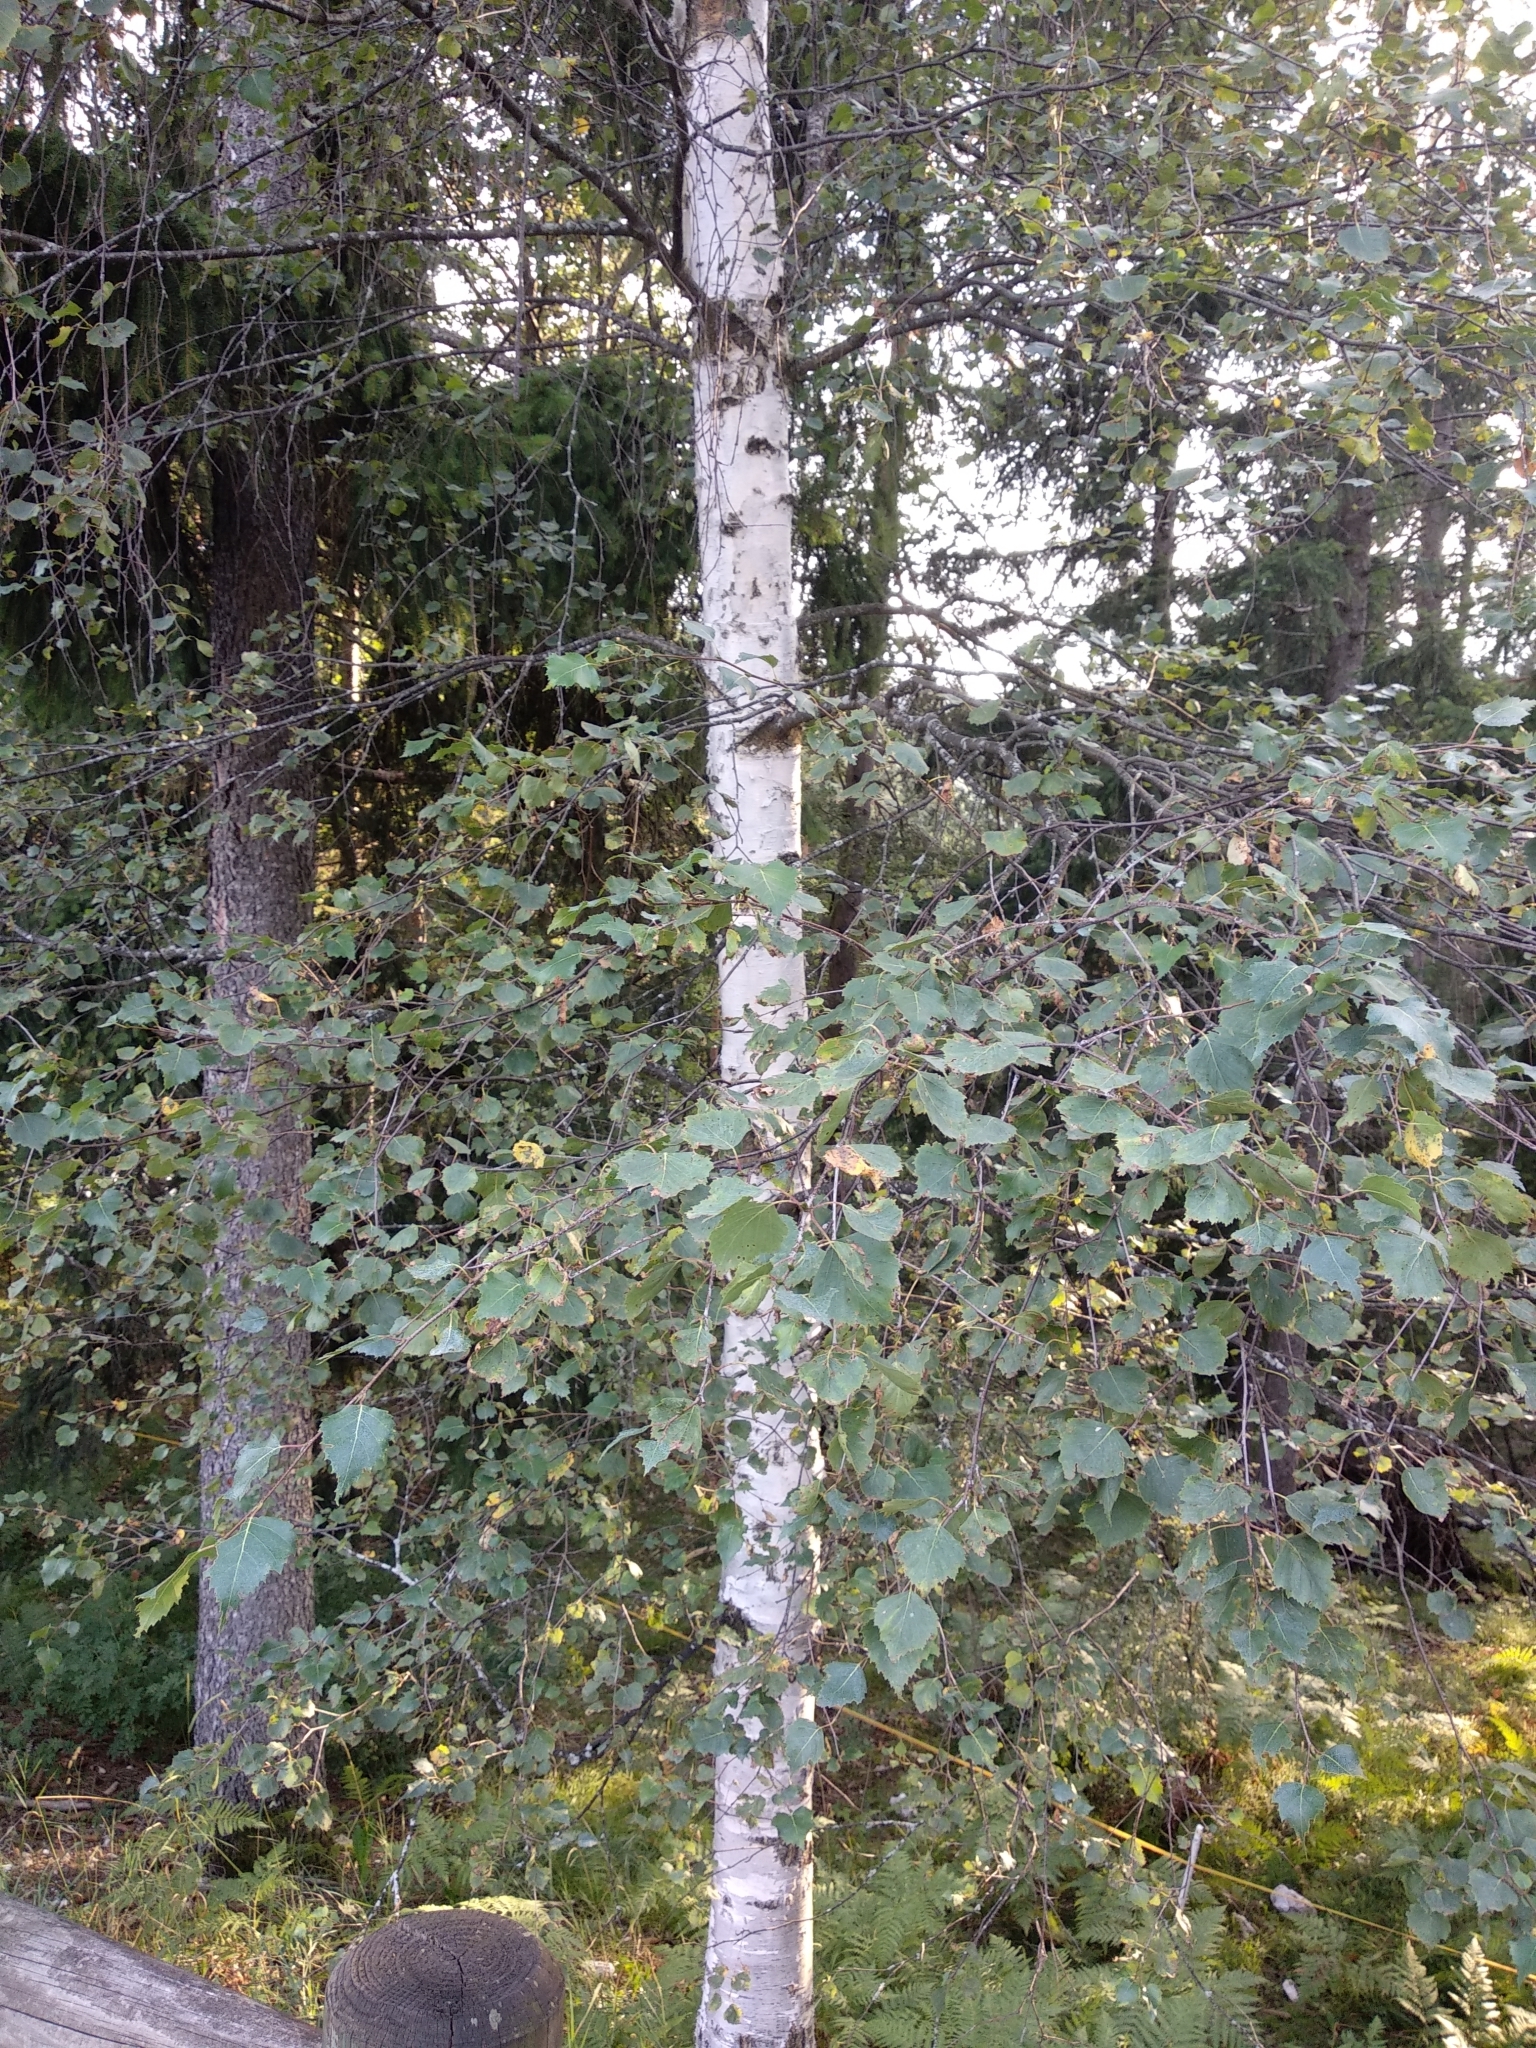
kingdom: Plantae
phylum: Tracheophyta
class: Magnoliopsida
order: Fagales
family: Betulaceae
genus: Betula
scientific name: Betula pendula
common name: Silver birch
